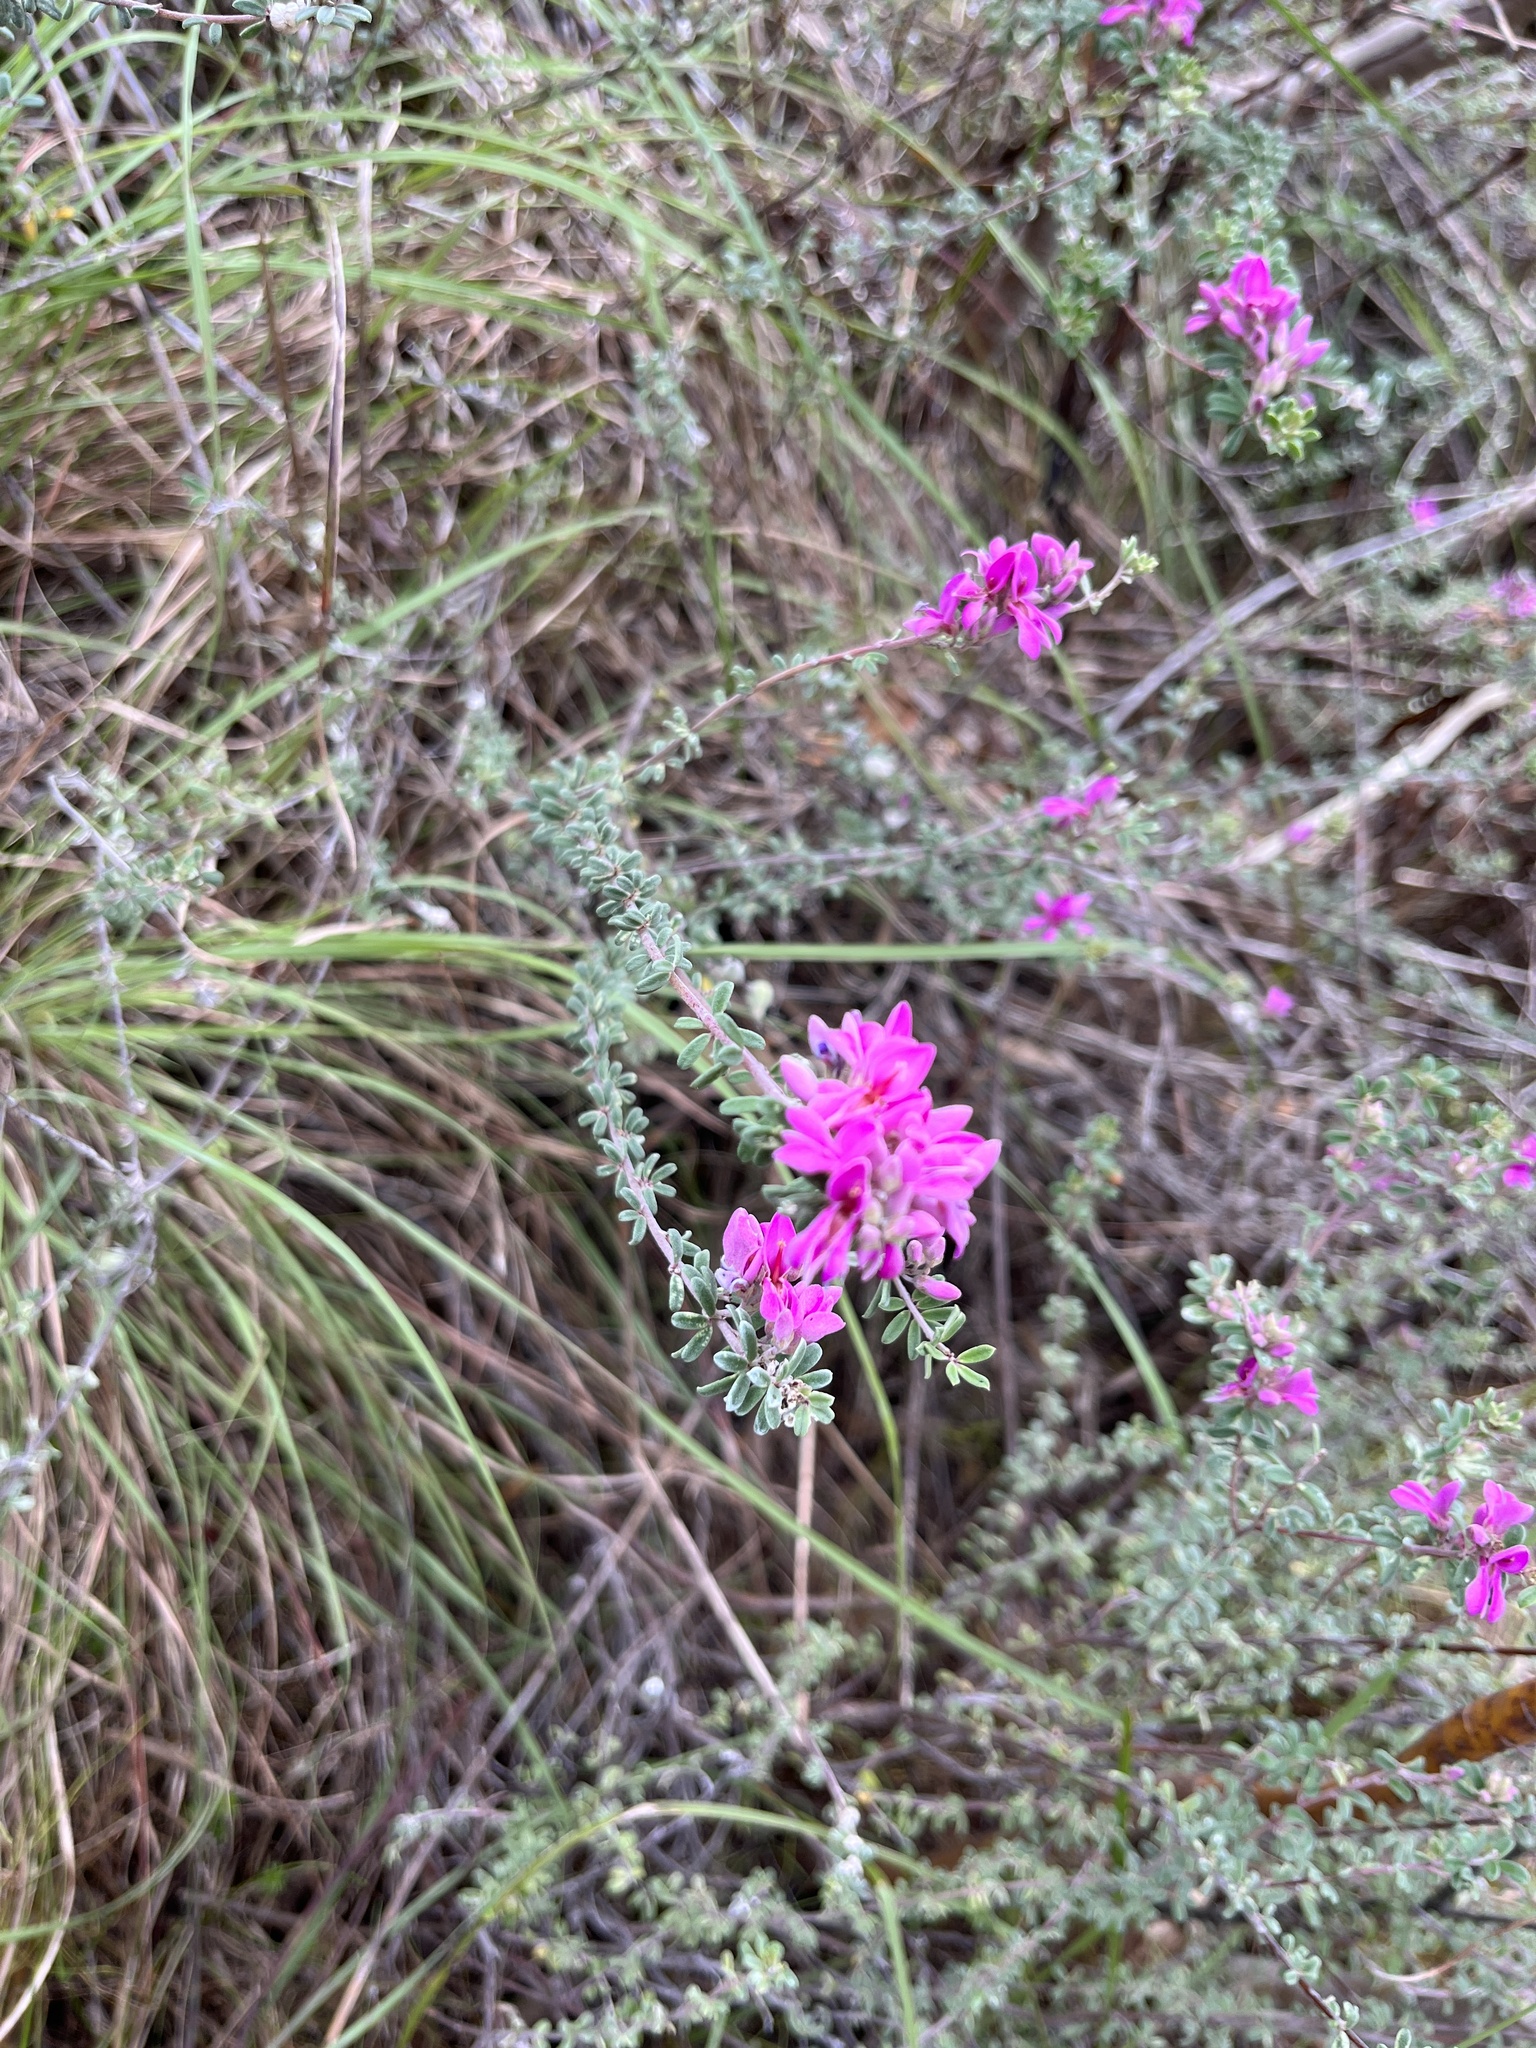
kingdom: Plantae
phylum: Tracheophyta
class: Magnoliopsida
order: Fabales
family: Fabaceae
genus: Indigofera
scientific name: Indigofera
